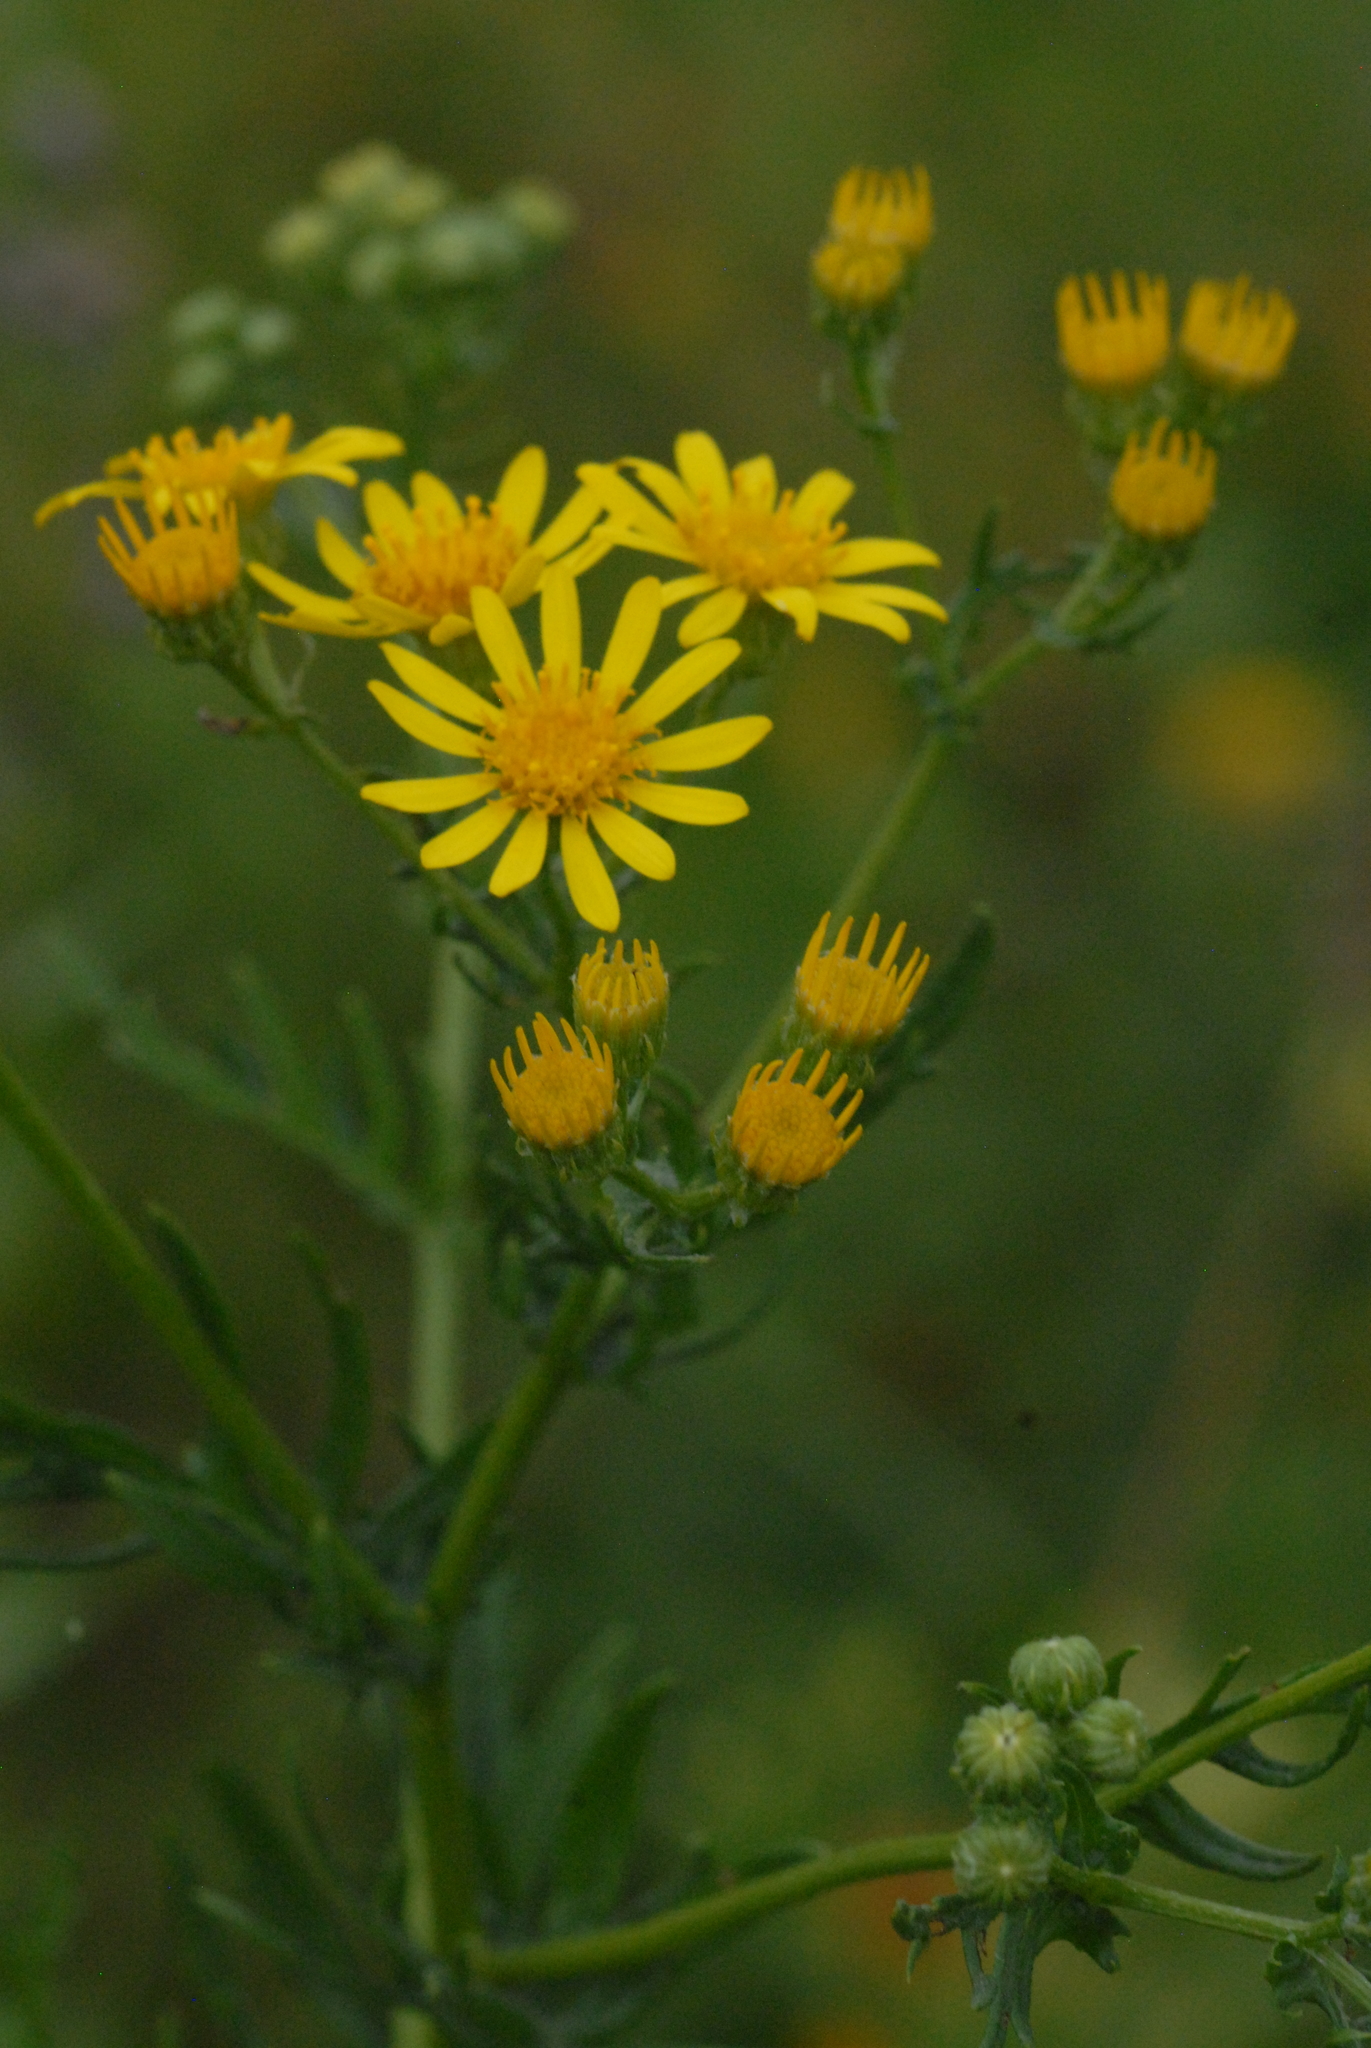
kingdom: Plantae
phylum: Tracheophyta
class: Magnoliopsida
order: Asterales
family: Asteraceae
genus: Jacobaea
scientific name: Jacobaea vulgaris
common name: Stinking willie
